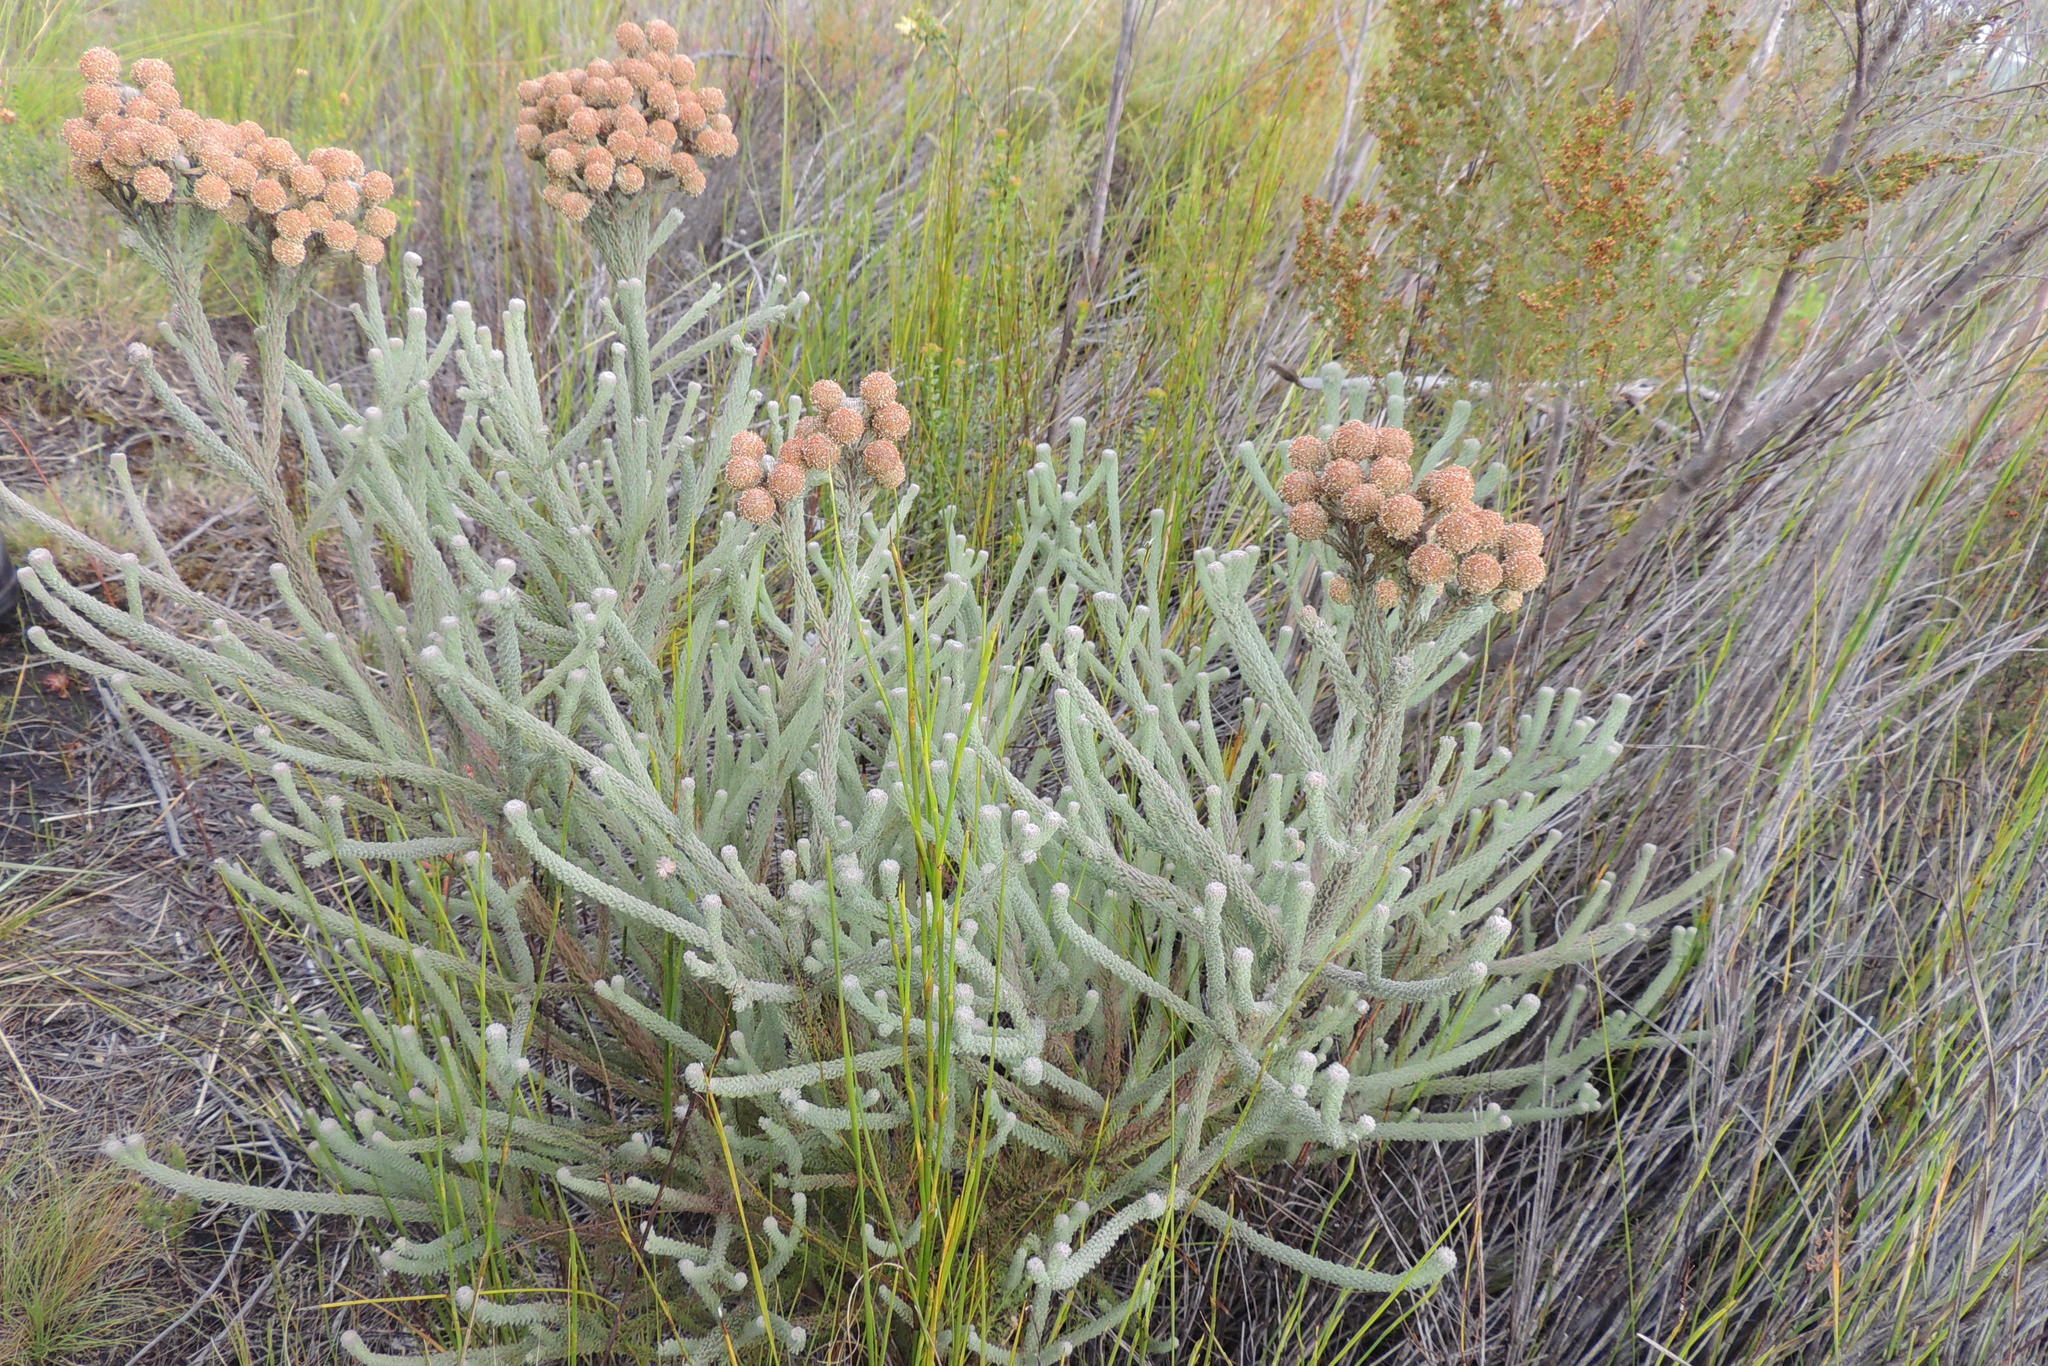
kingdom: Plantae
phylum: Tracheophyta
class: Magnoliopsida
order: Bruniales
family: Bruniaceae
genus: Berzelia
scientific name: Berzelia burchellii
